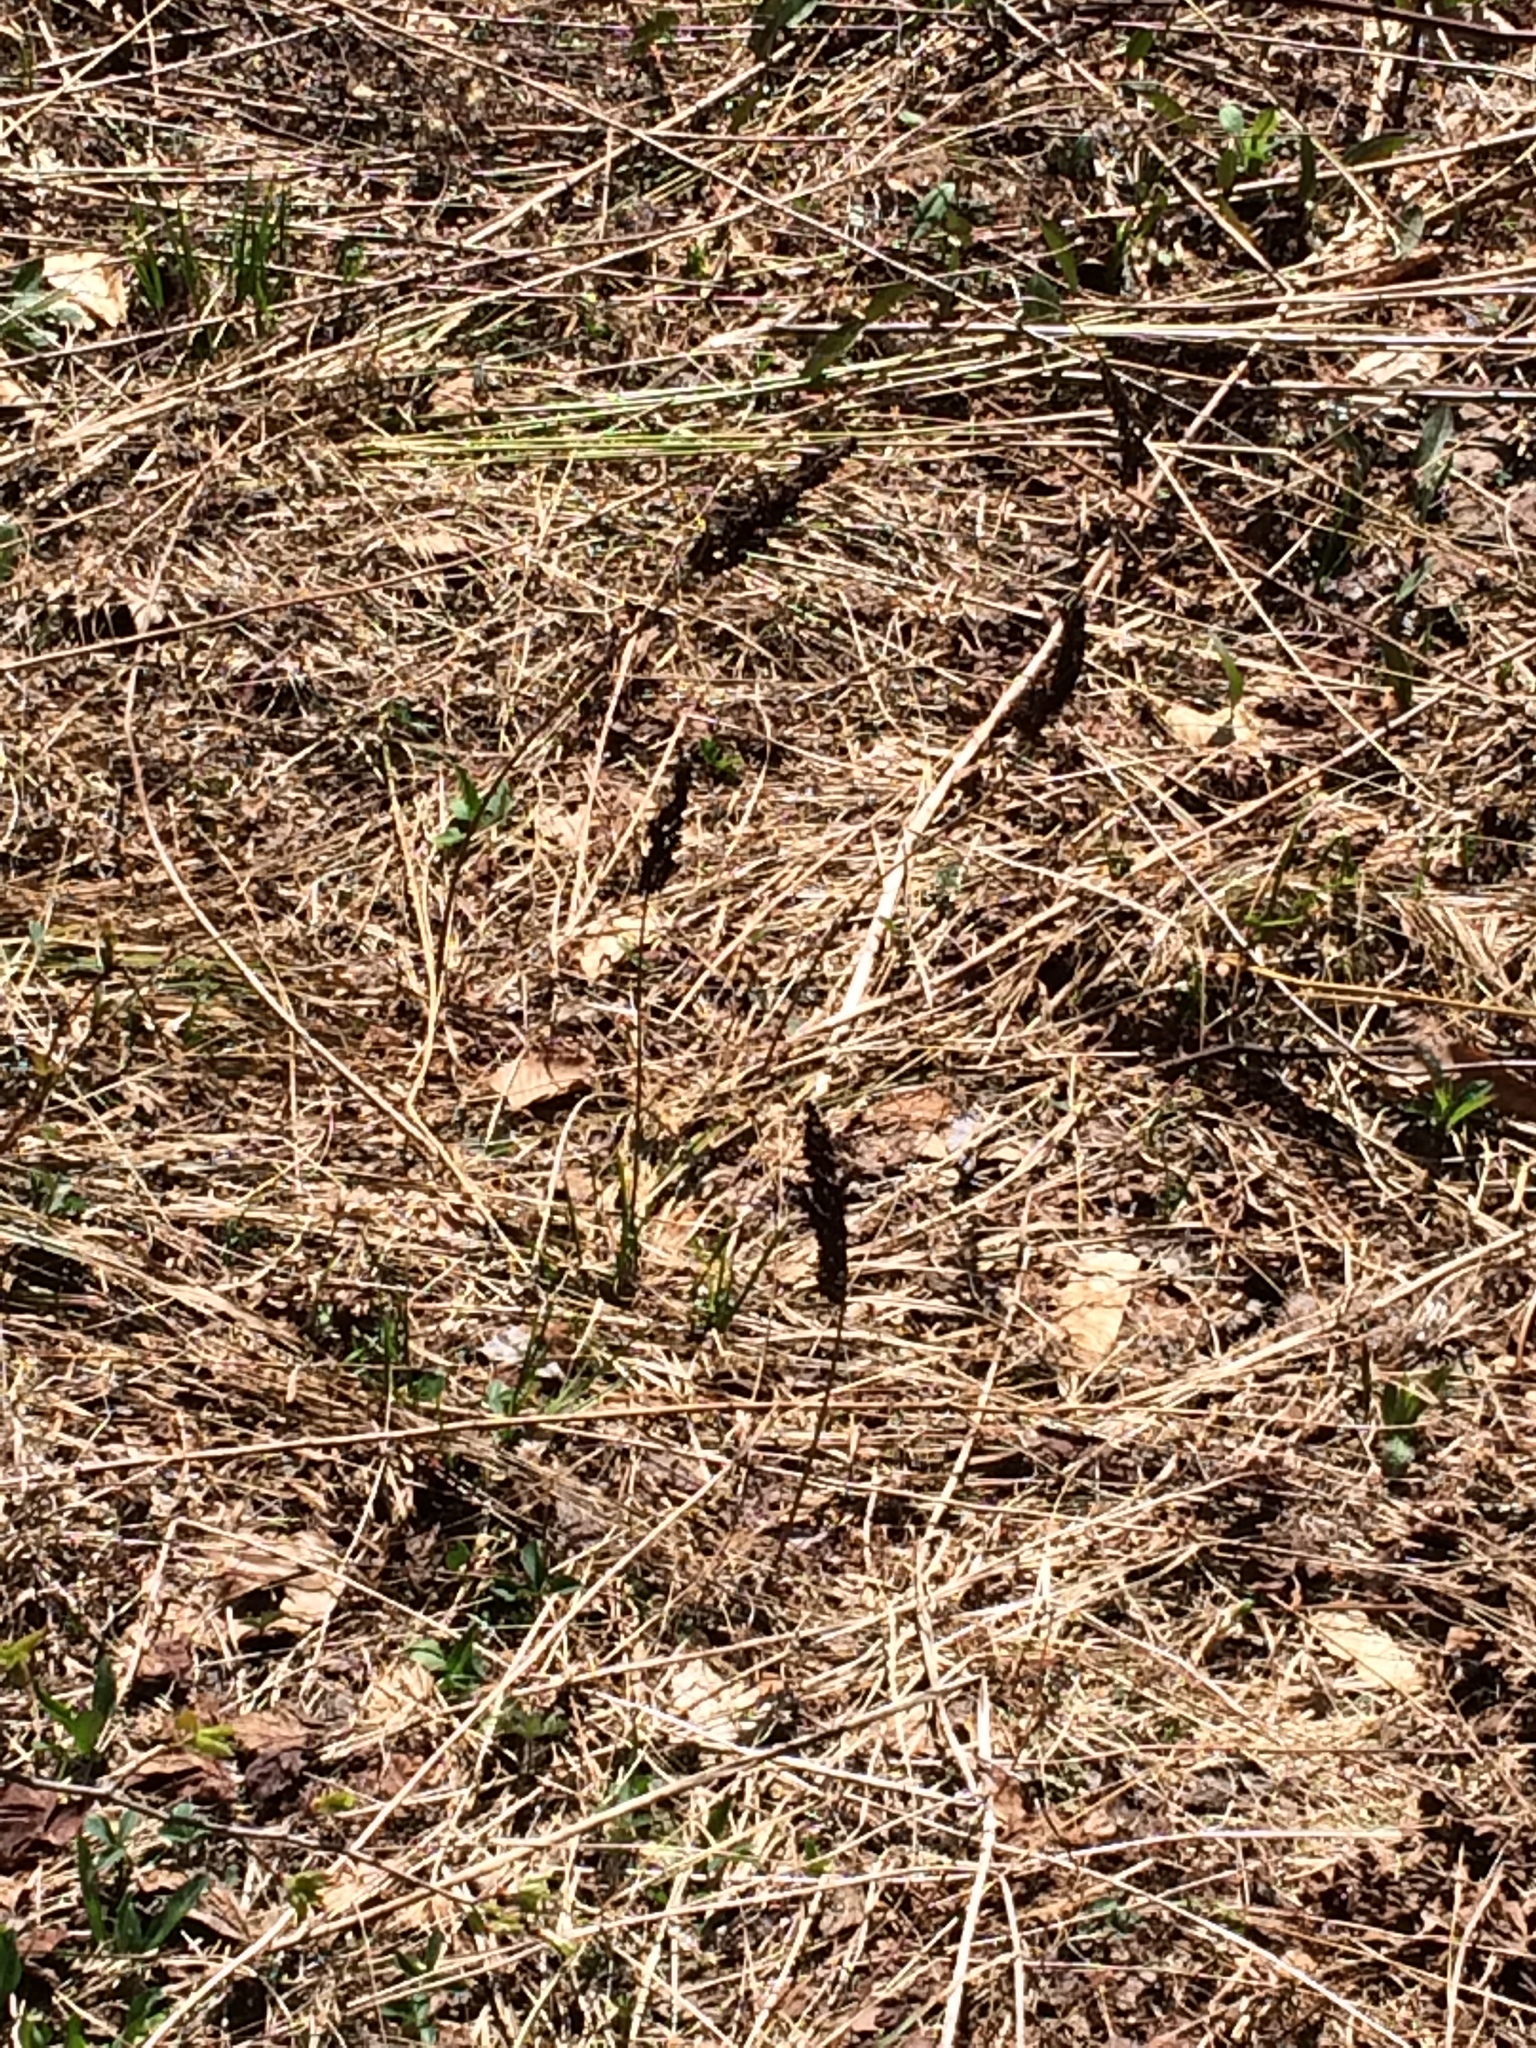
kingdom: Plantae
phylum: Tracheophyta
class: Polypodiopsida
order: Polypodiales
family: Onocleaceae
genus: Onoclea
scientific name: Onoclea sensibilis
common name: Sensitive fern
